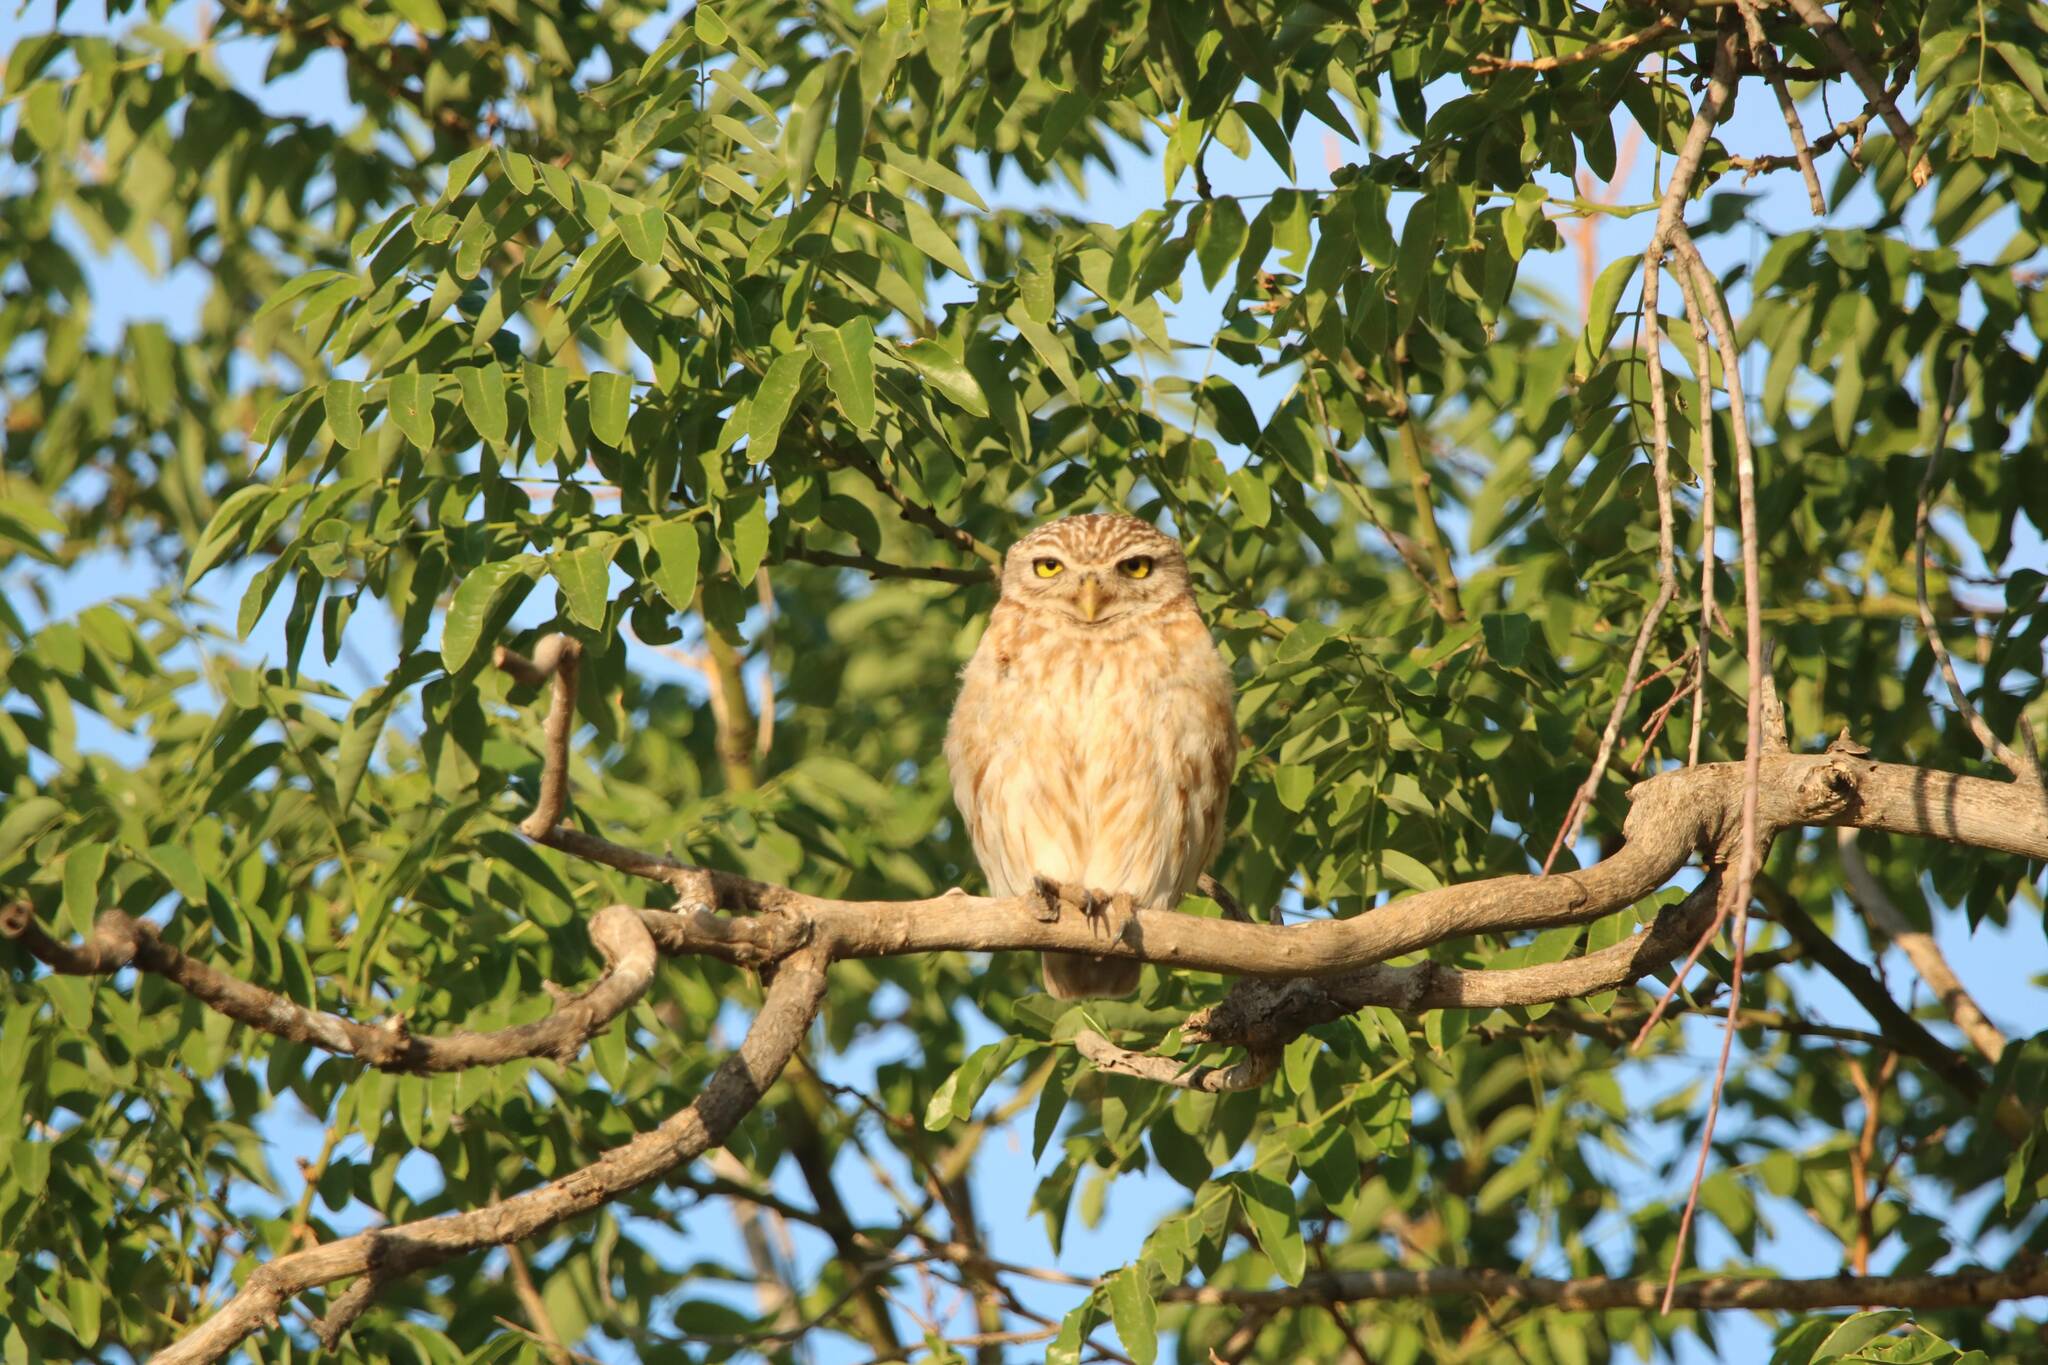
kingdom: Animalia
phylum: Chordata
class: Aves
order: Strigiformes
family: Strigidae
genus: Athene
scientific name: Athene noctua
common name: Little owl
